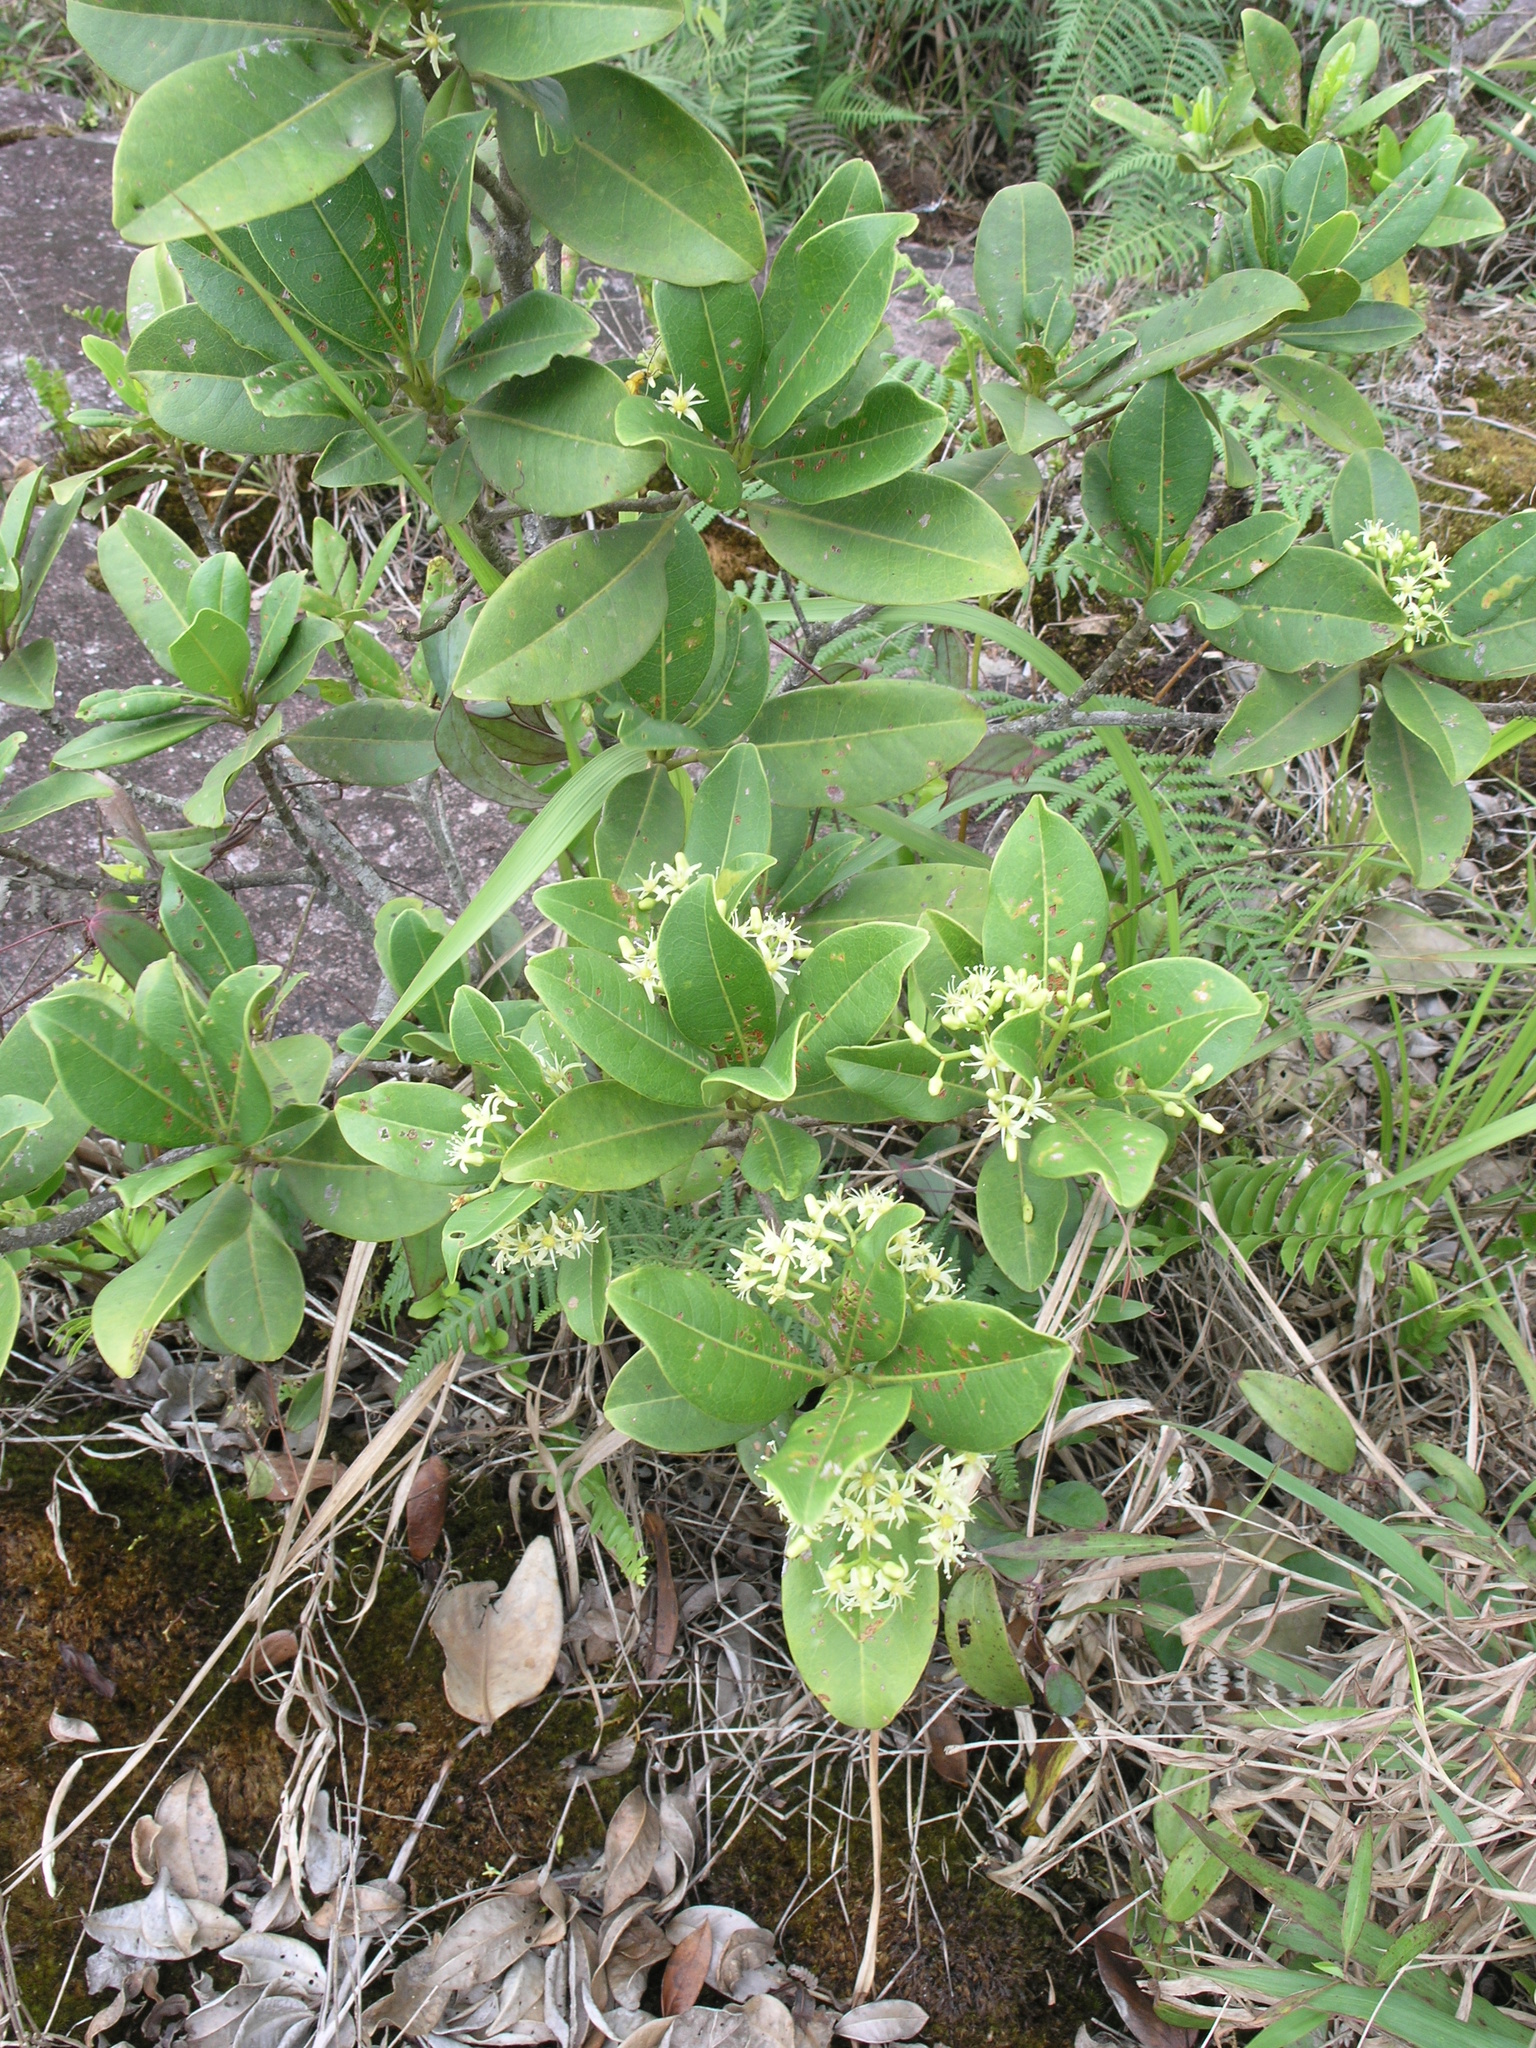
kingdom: Plantae
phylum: Tracheophyta
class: Magnoliopsida
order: Sapindales
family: Rutaceae
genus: Acronychia
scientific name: Acronychia pedunculata
